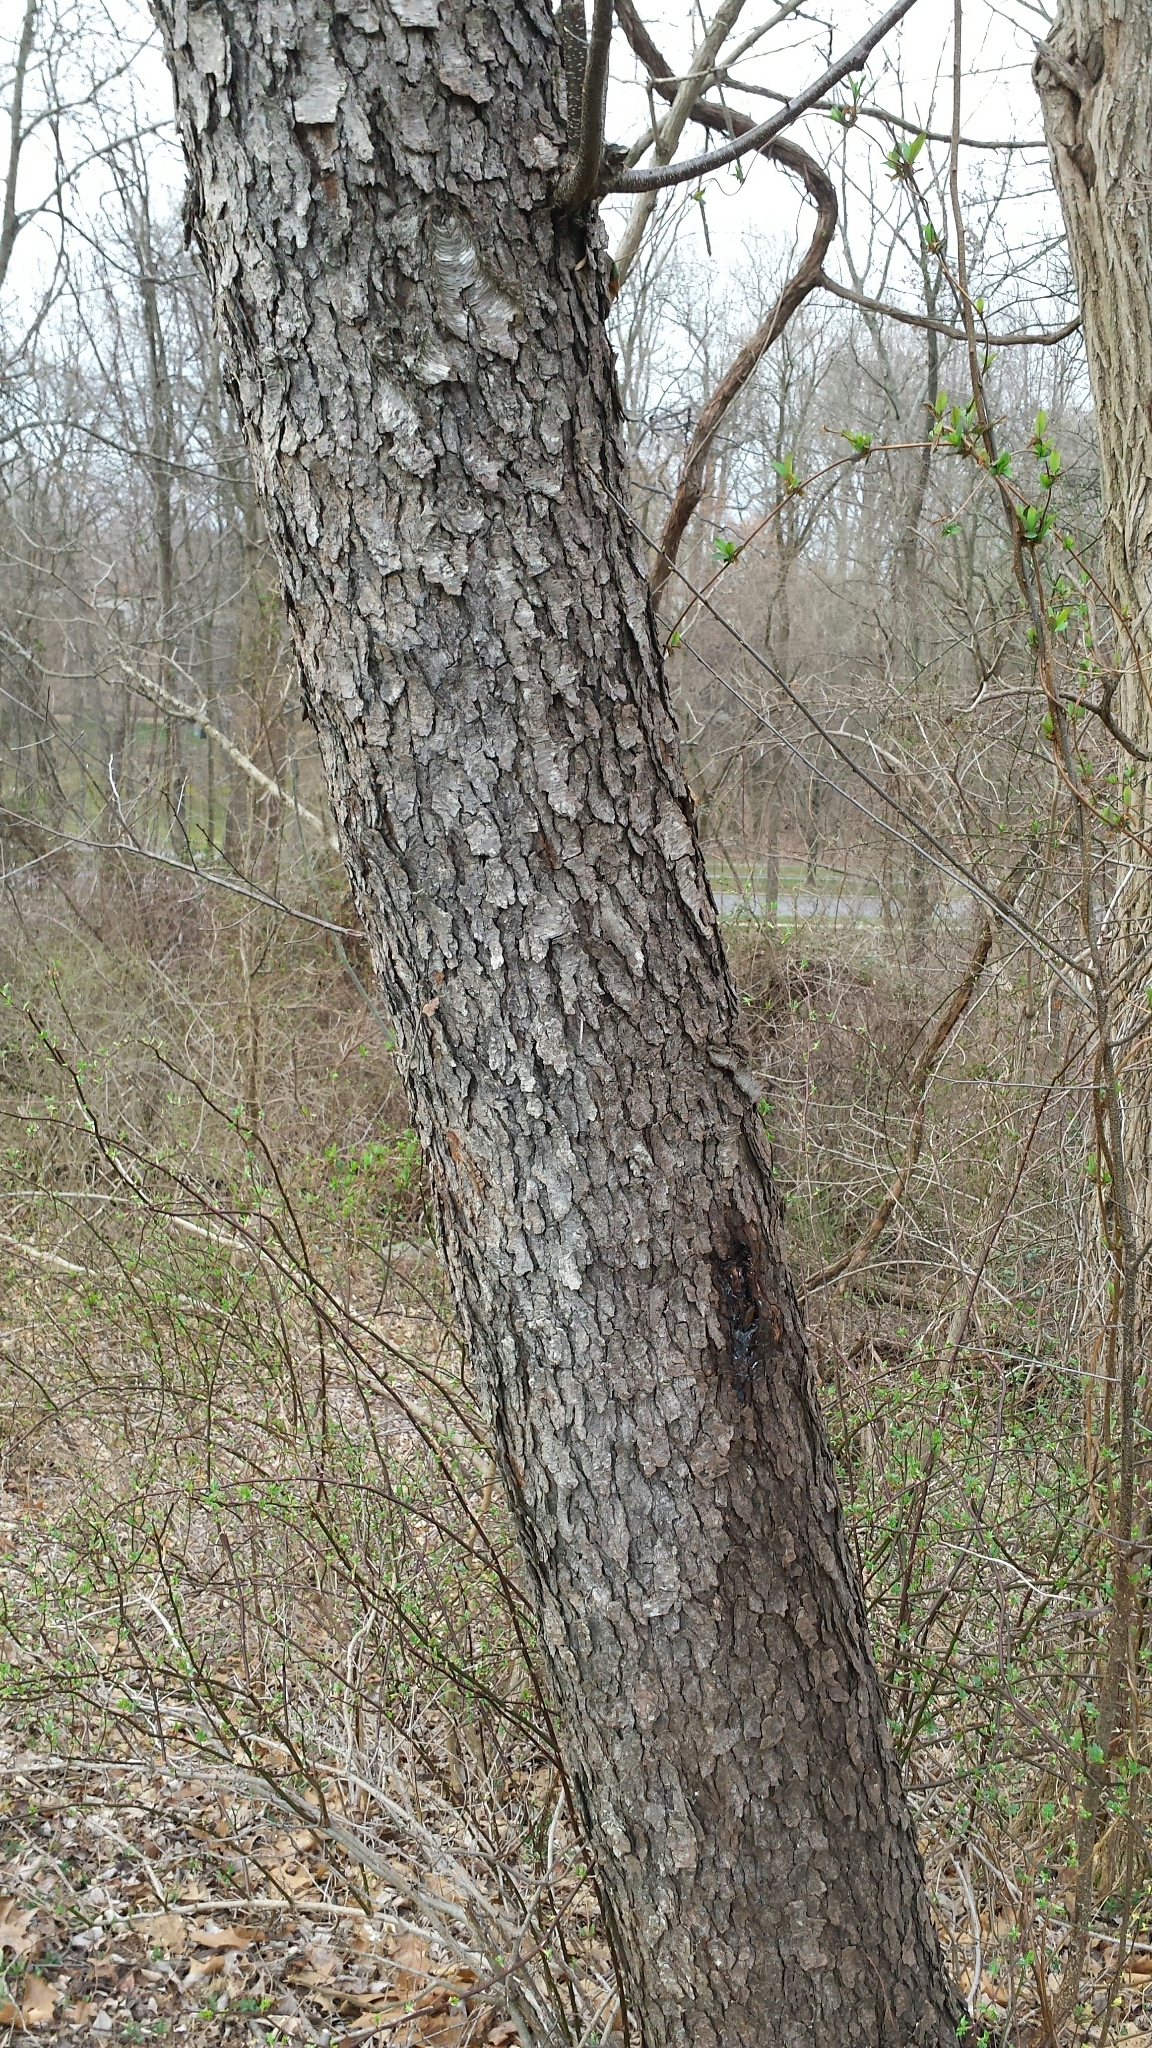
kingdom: Plantae
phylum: Tracheophyta
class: Magnoliopsida
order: Rosales
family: Rosaceae
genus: Prunus
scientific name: Prunus serotina
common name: Black cherry
